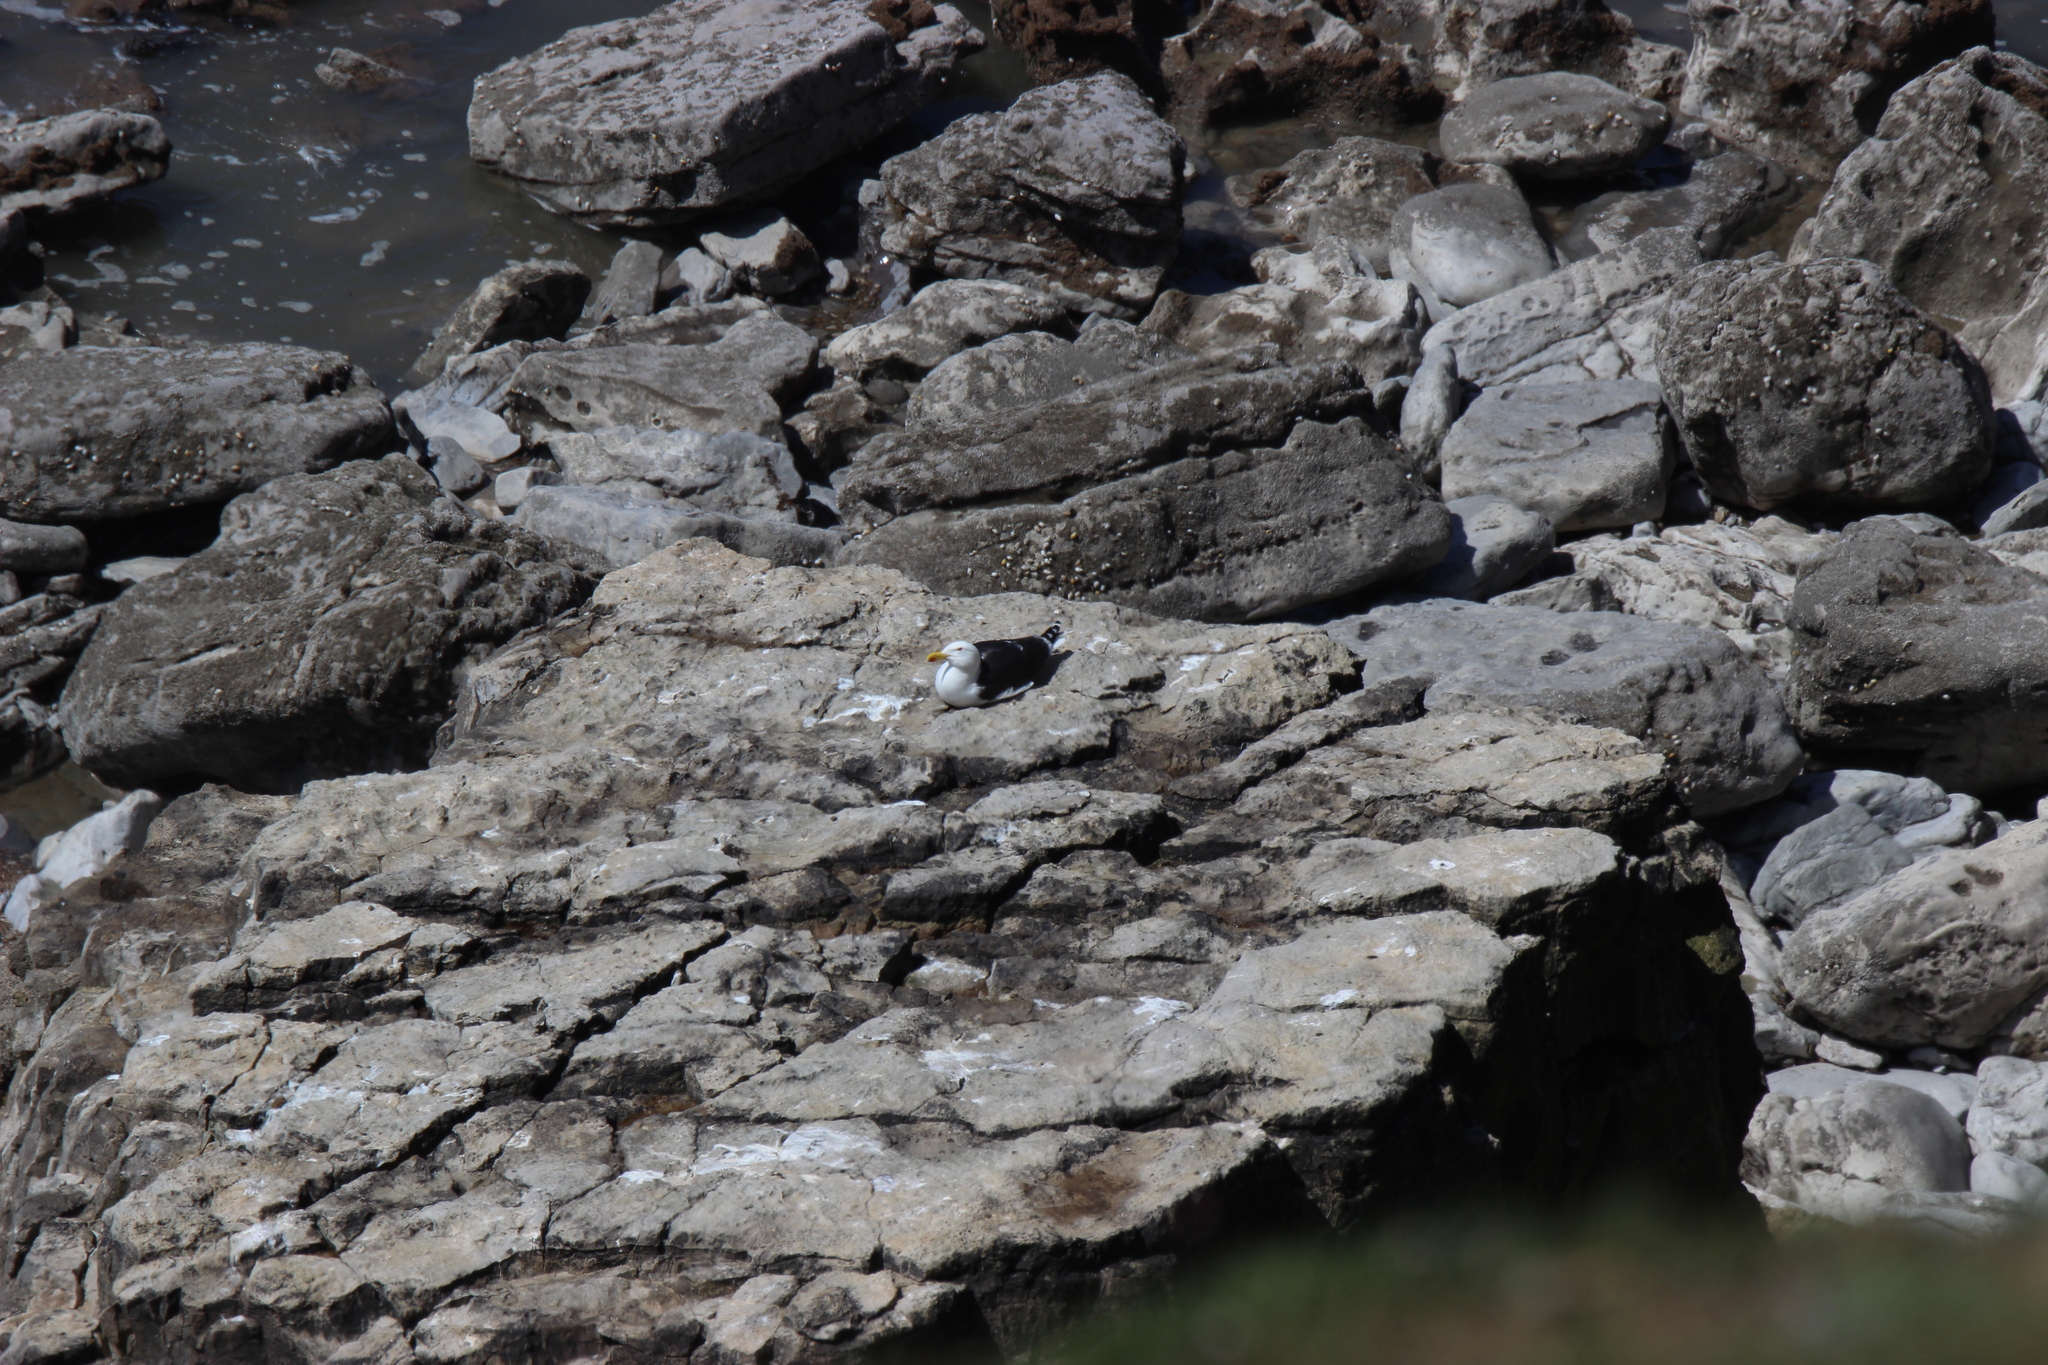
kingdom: Animalia
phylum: Chordata
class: Aves
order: Charadriiformes
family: Laridae
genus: Larus
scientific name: Larus marinus
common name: Great black-backed gull
